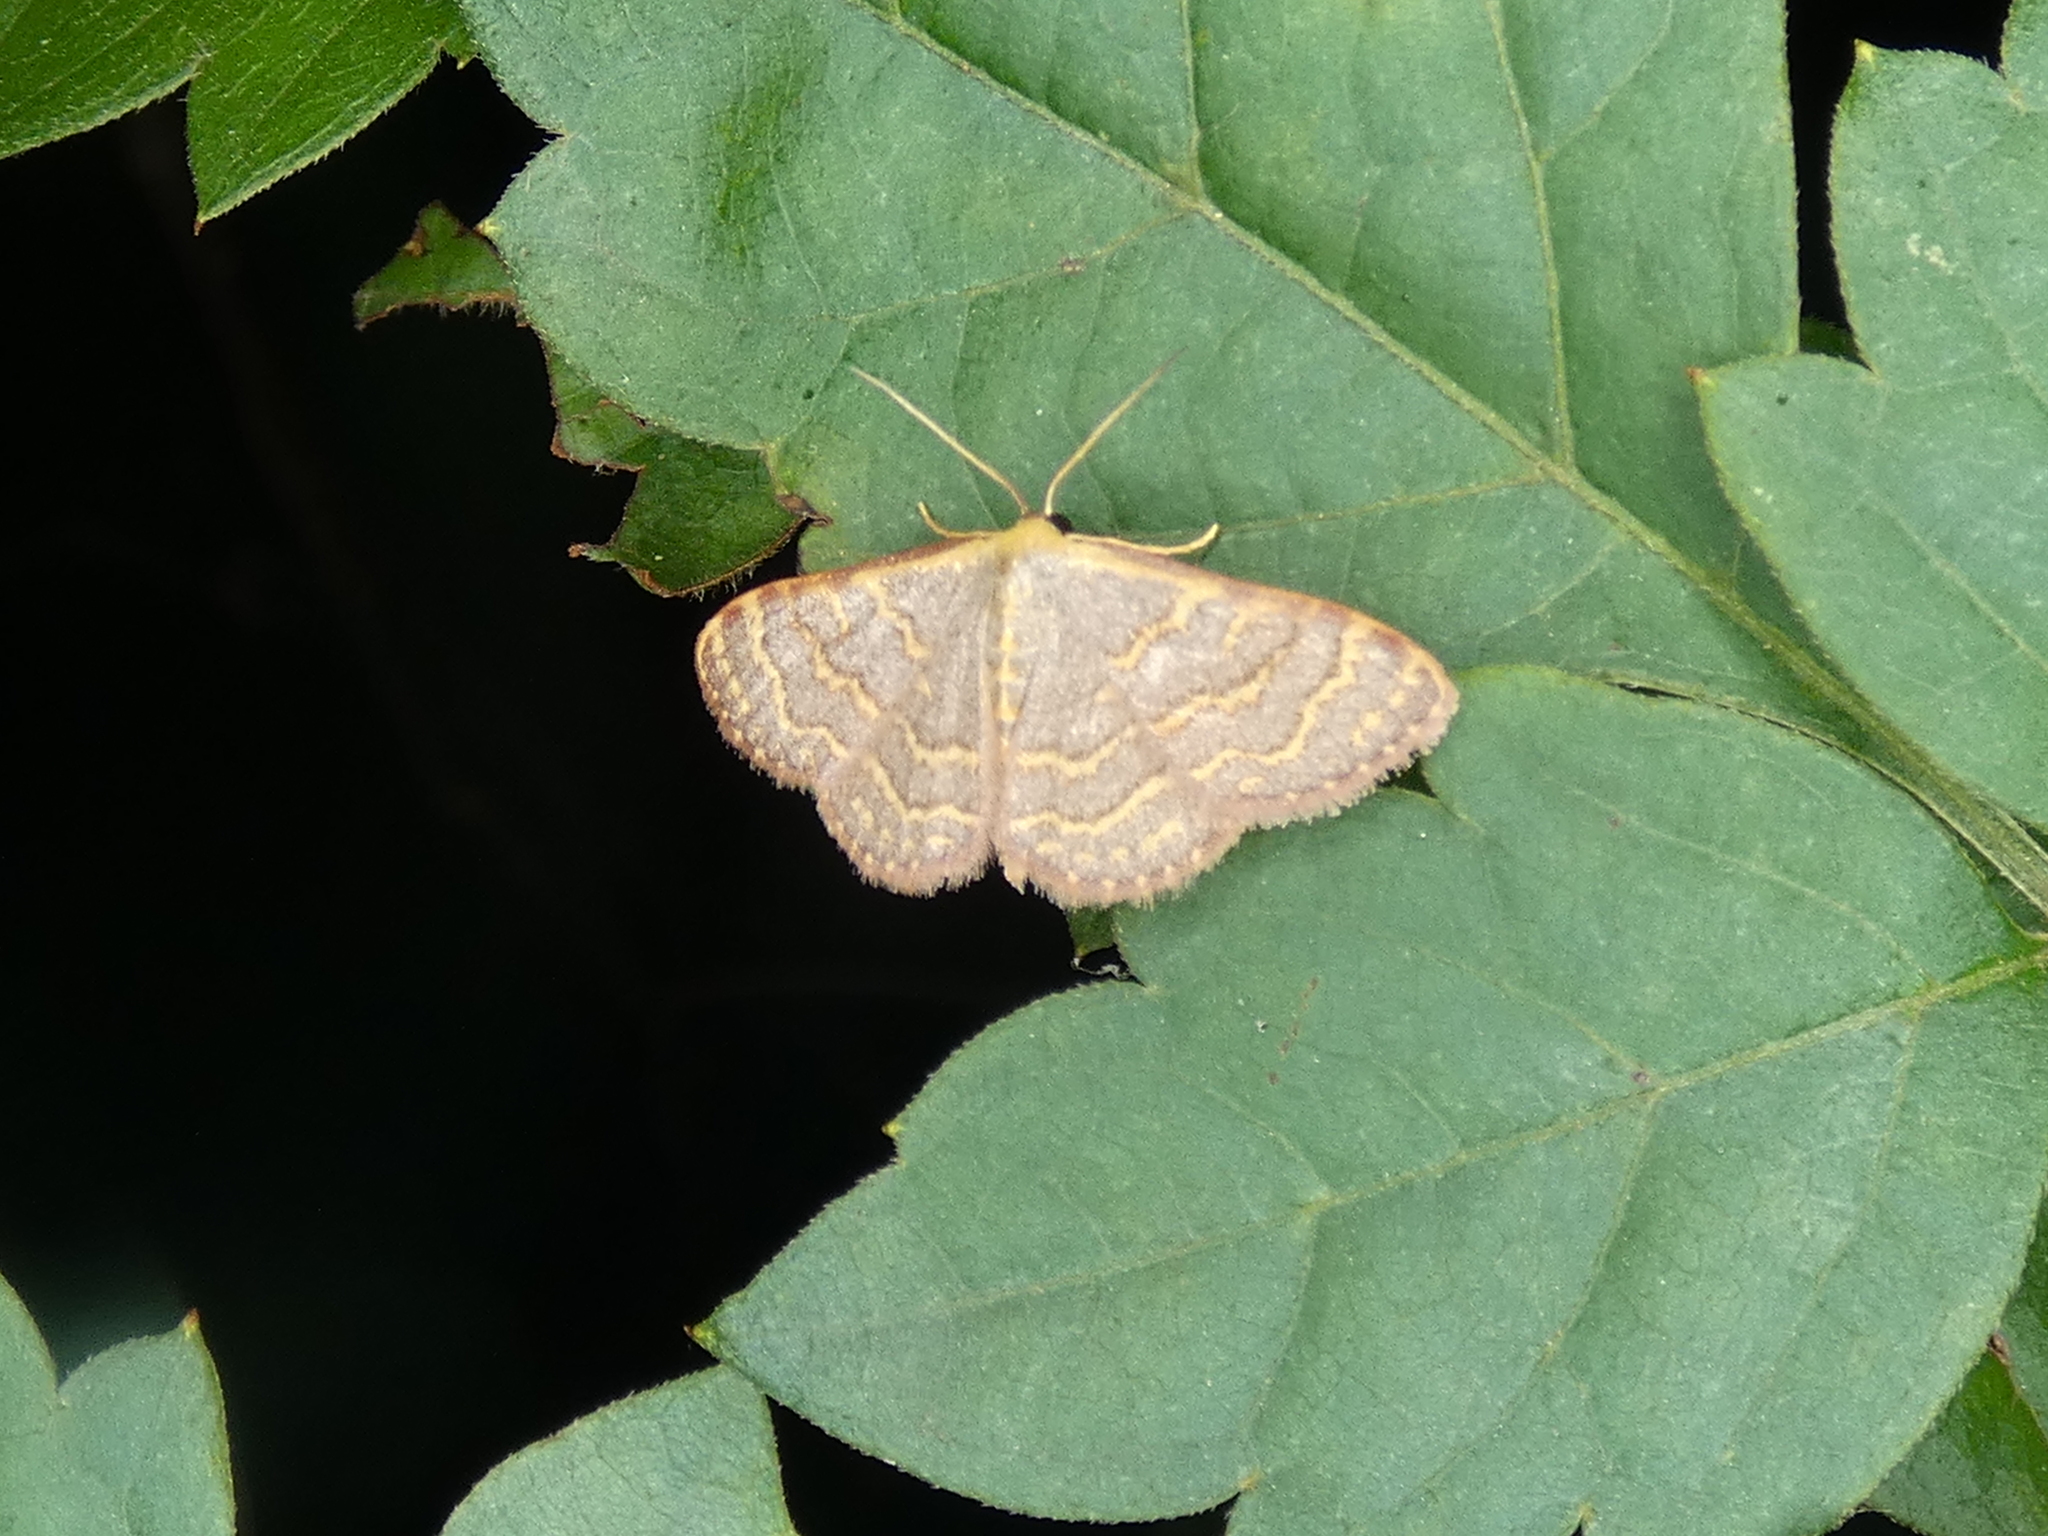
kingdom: Animalia
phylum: Arthropoda
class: Insecta
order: Lepidoptera
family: Geometridae
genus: Leptostales
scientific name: Leptostales pannaria
